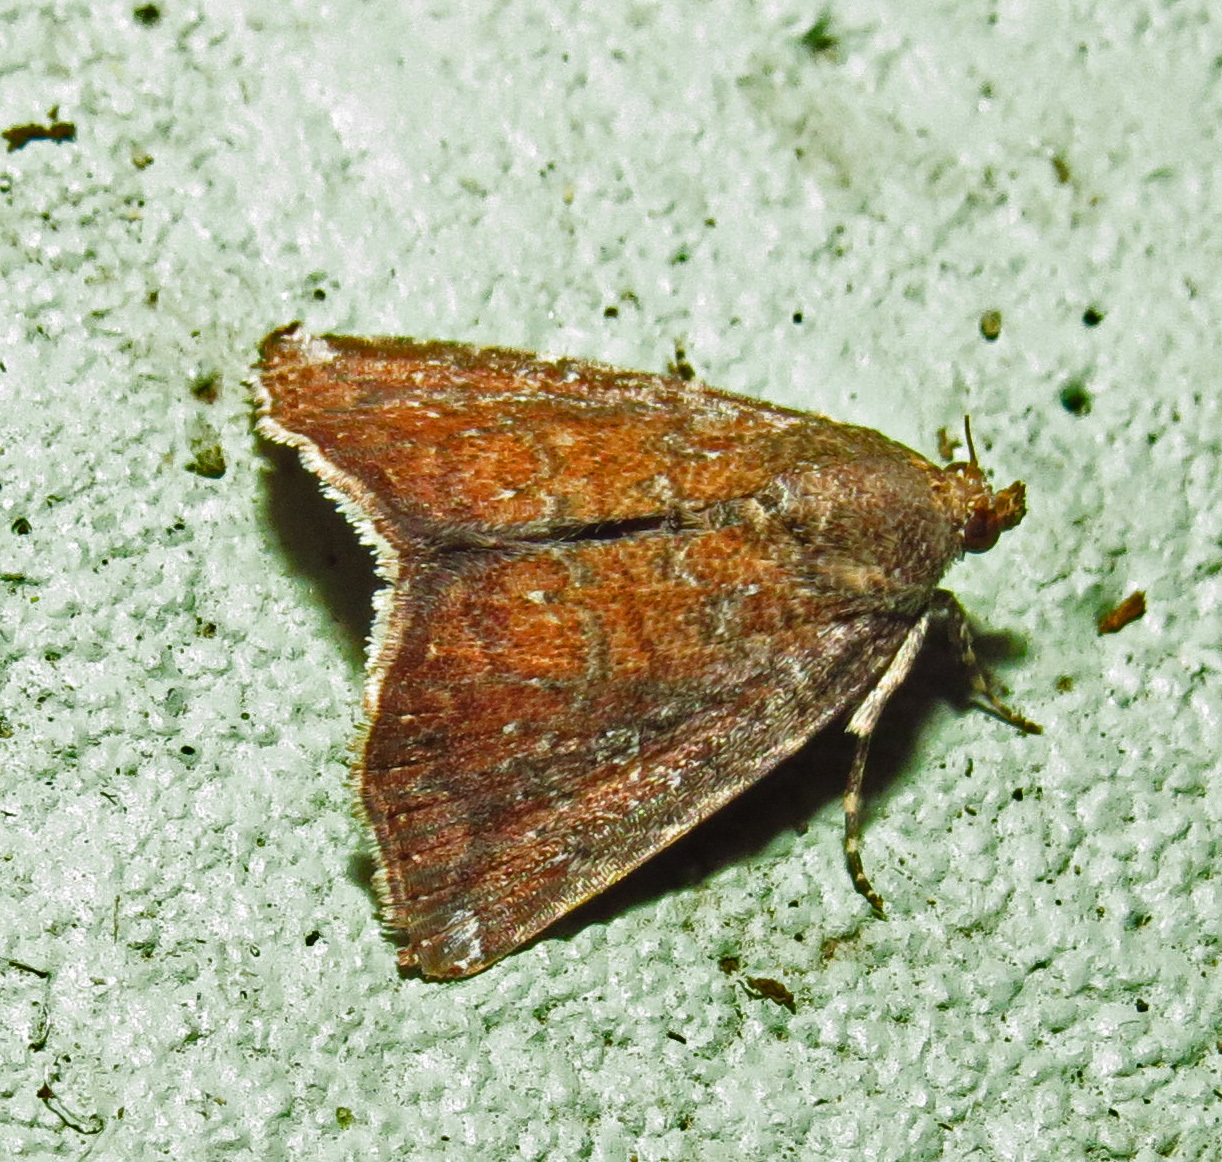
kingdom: Animalia
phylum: Arthropoda
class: Insecta
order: Lepidoptera
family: Noctuidae
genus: Amyna
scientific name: Amyna bullula
